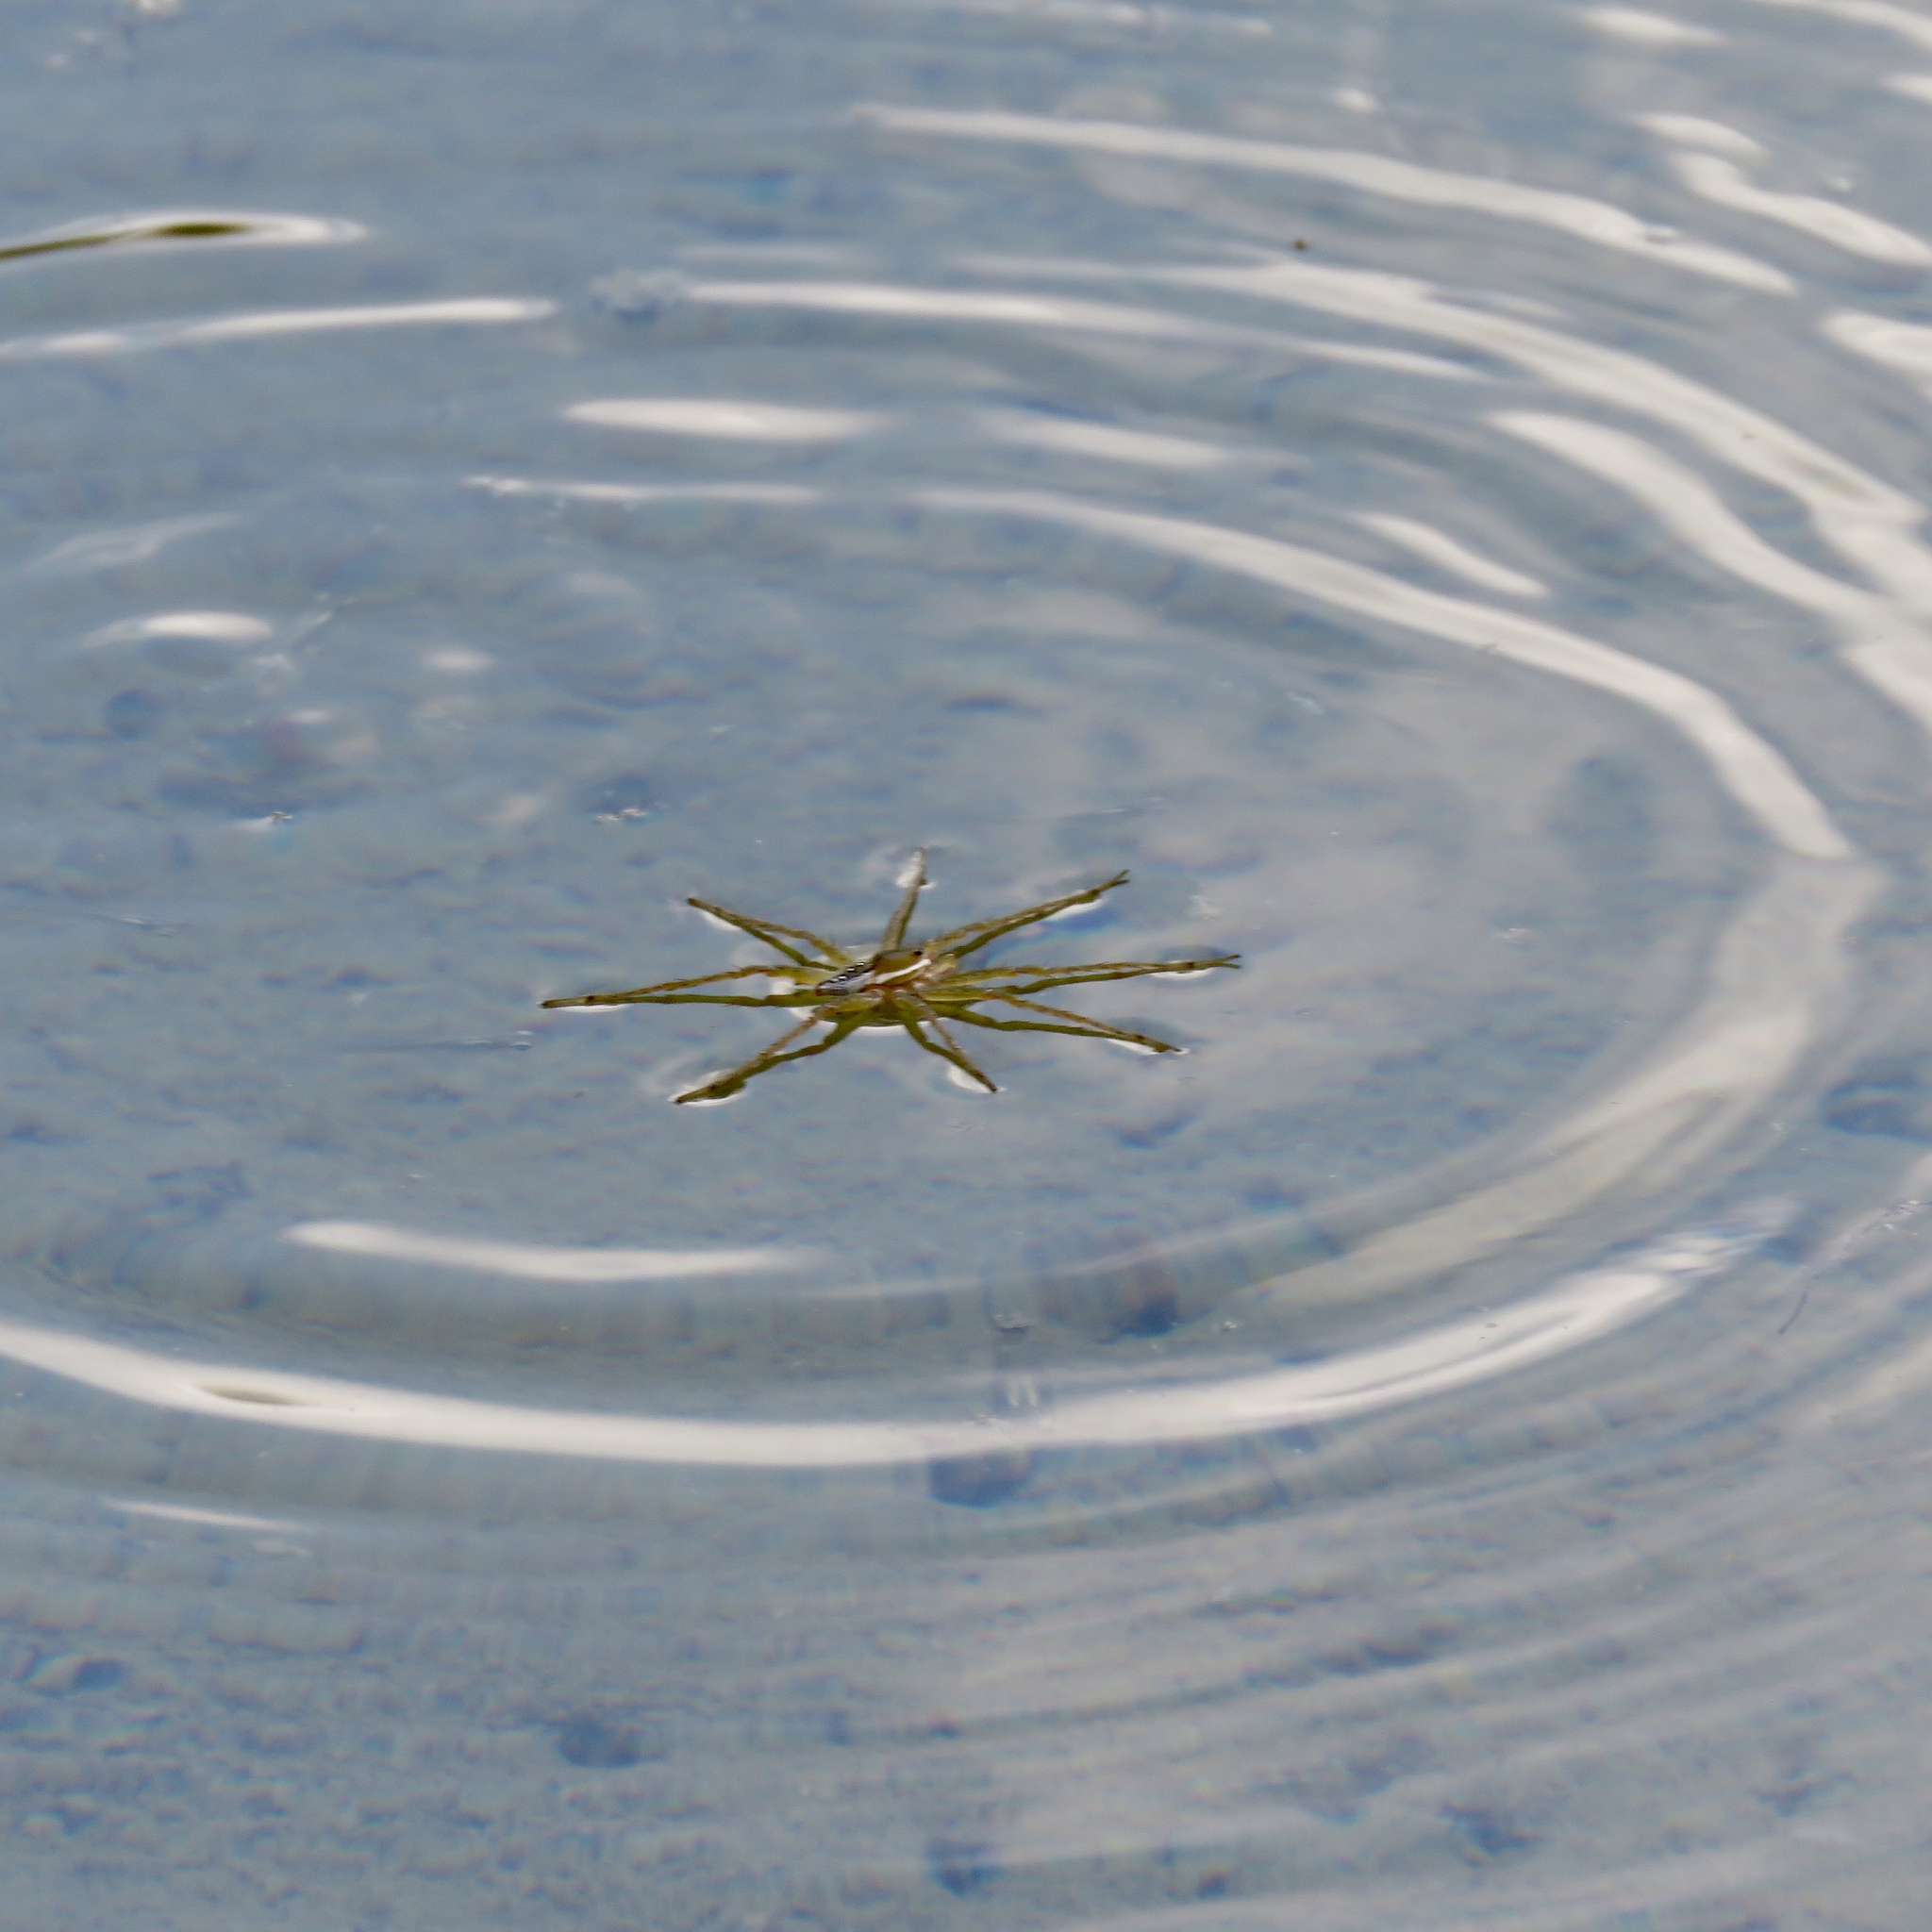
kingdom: Animalia
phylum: Arthropoda
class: Arachnida
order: Araneae
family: Pisauridae
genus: Dolomedes
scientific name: Dolomedes triton
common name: Six-spotted fishing spider
